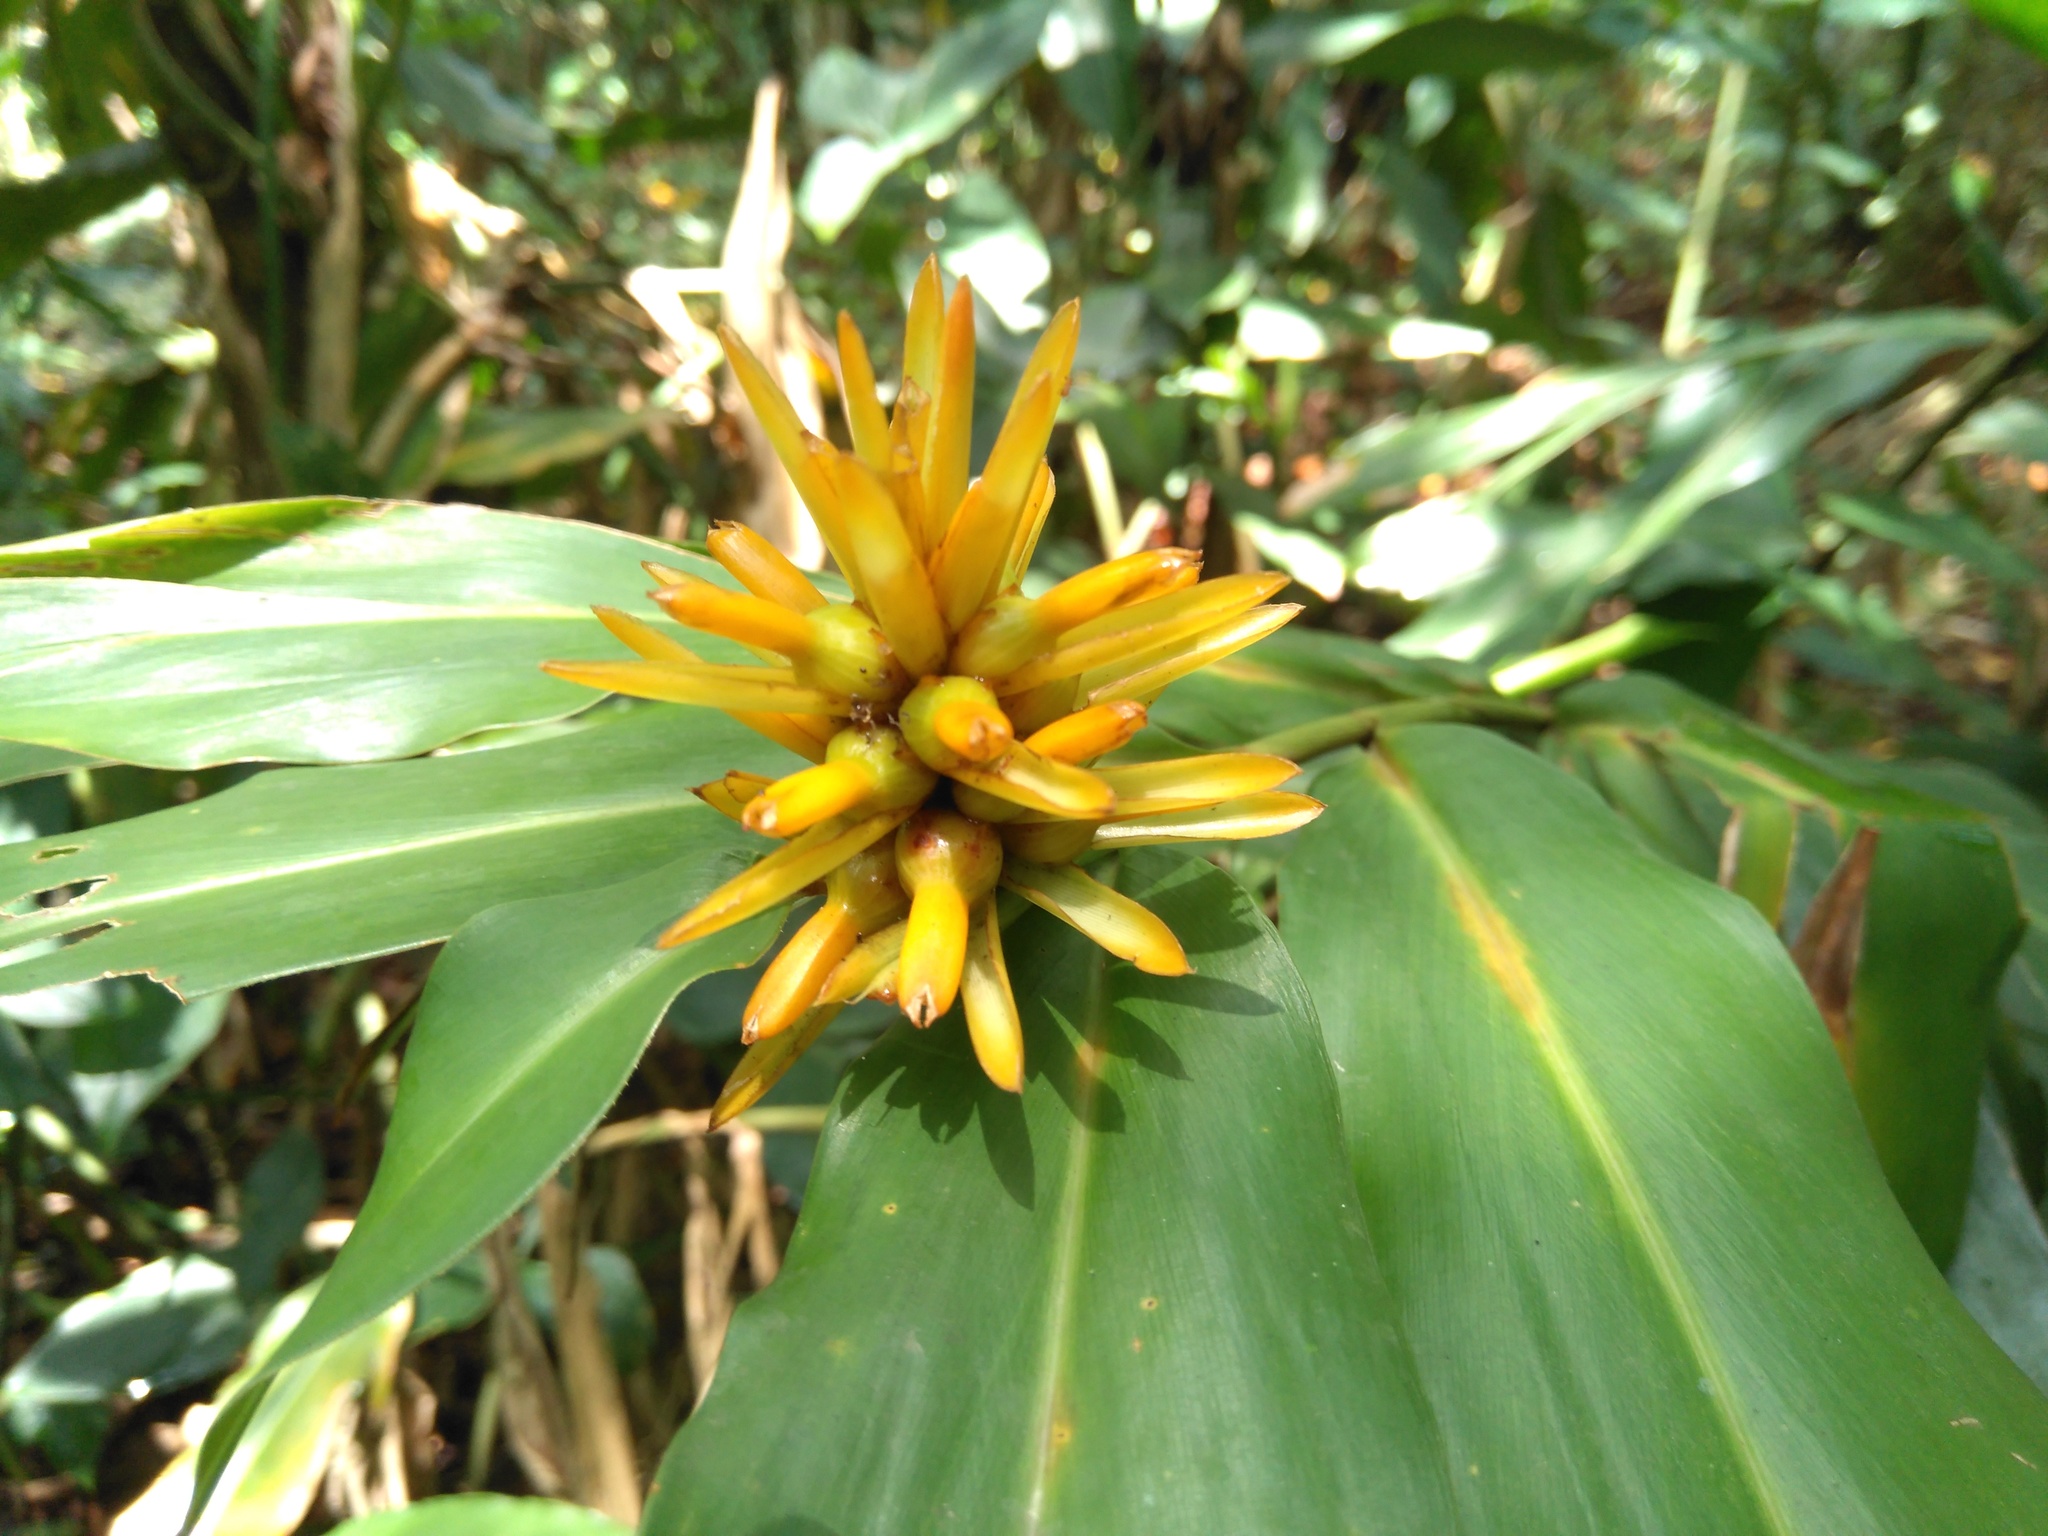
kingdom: Plantae
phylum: Tracheophyta
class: Liliopsida
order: Zingiberales
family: Zingiberaceae
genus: Renealmia
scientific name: Renealmia cernua
